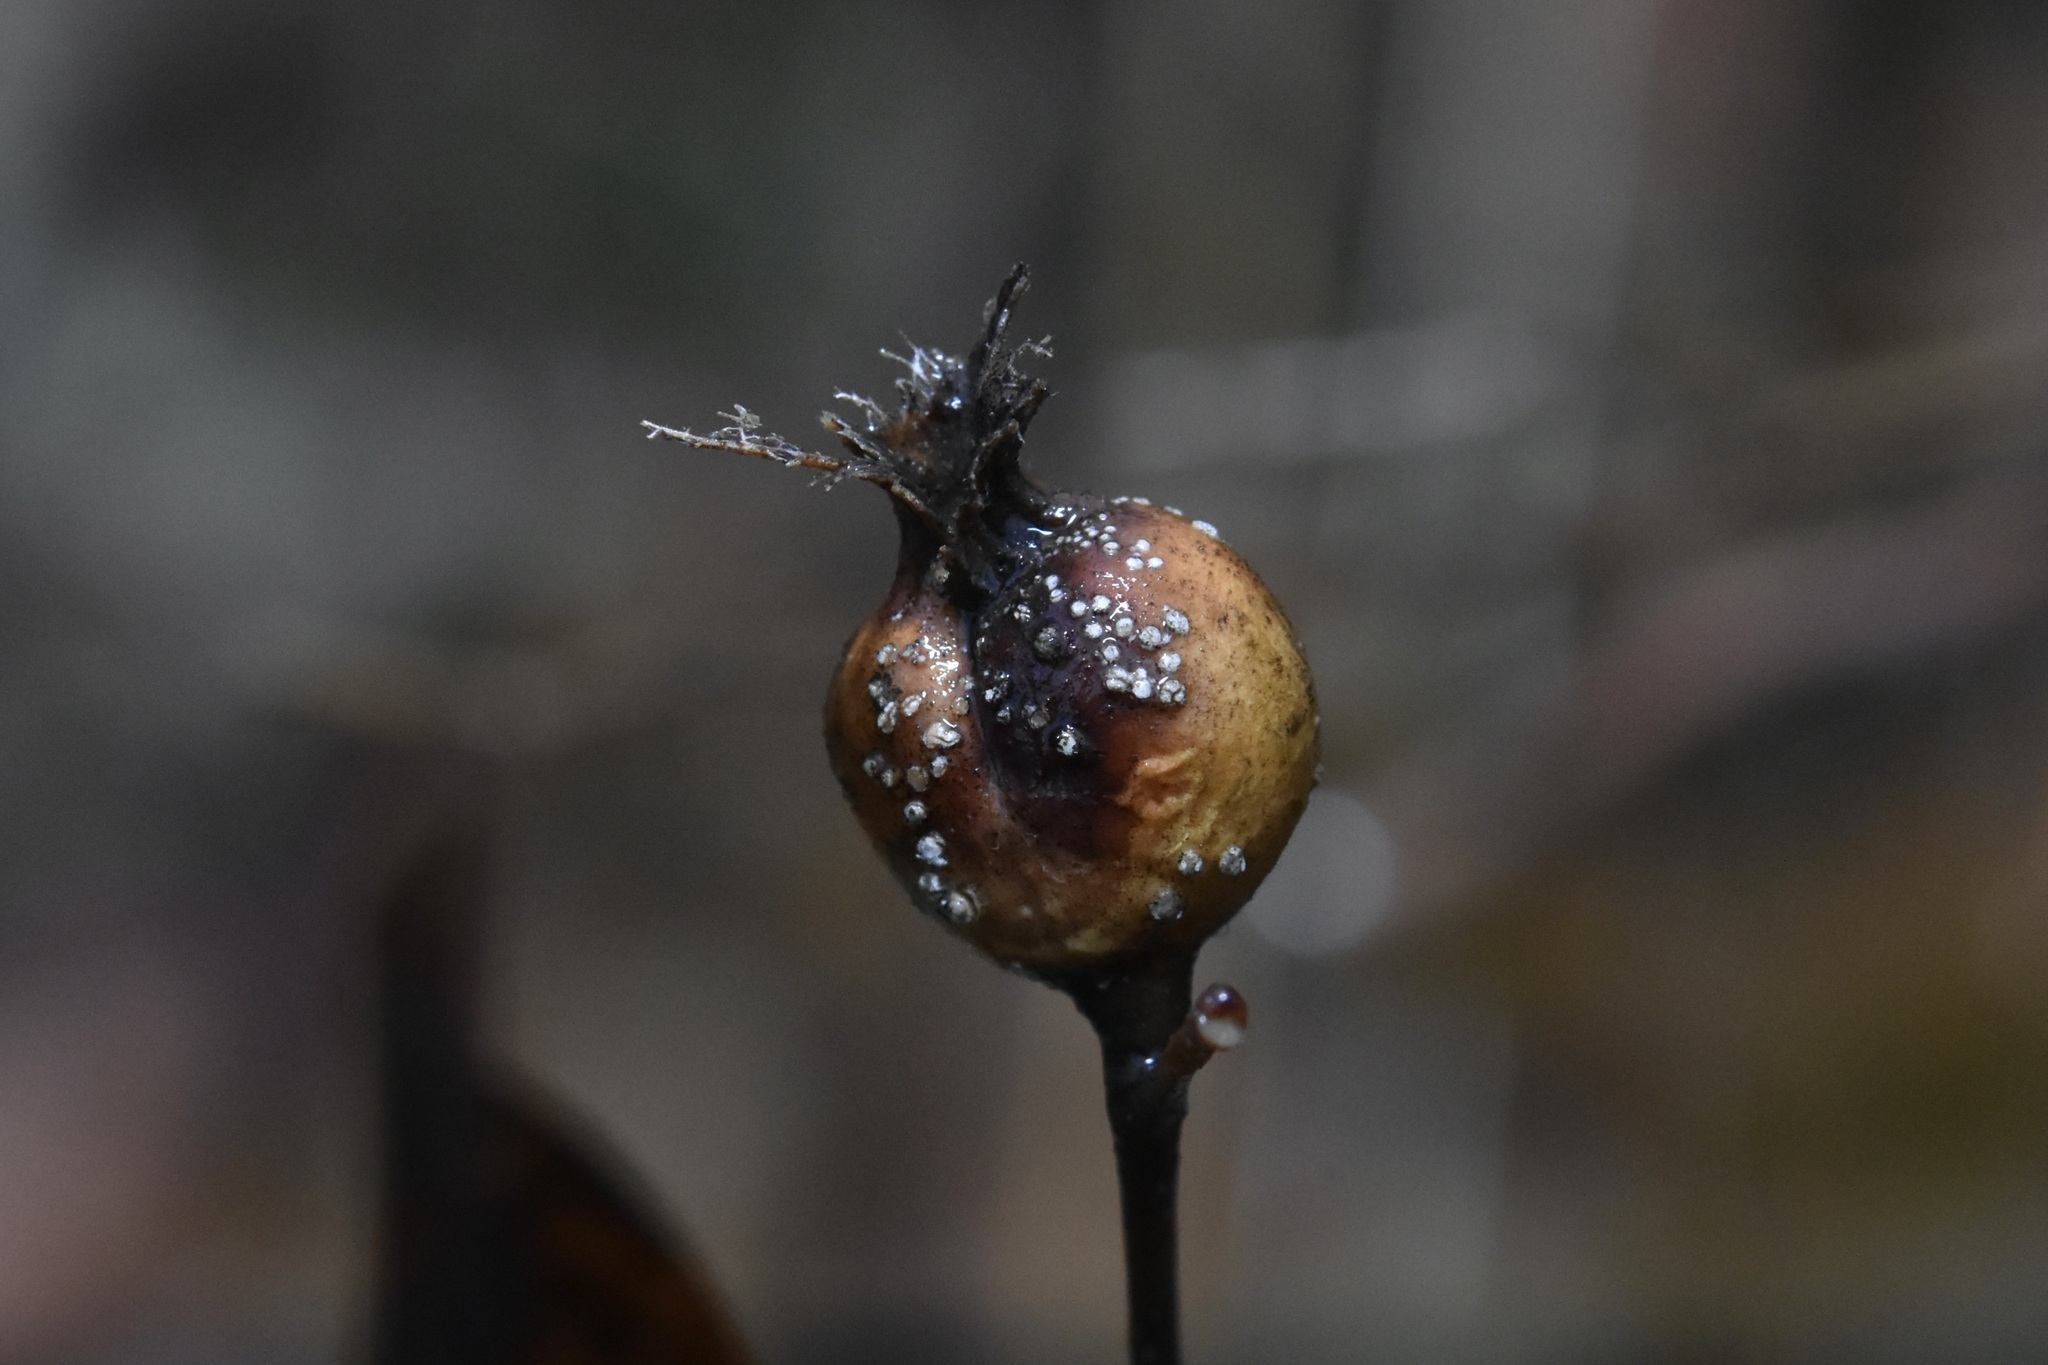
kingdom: Animalia
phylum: Arthropoda
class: Insecta
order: Hemiptera
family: Aphalaridae
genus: Pachypsylla
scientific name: Pachypsylla venusta
